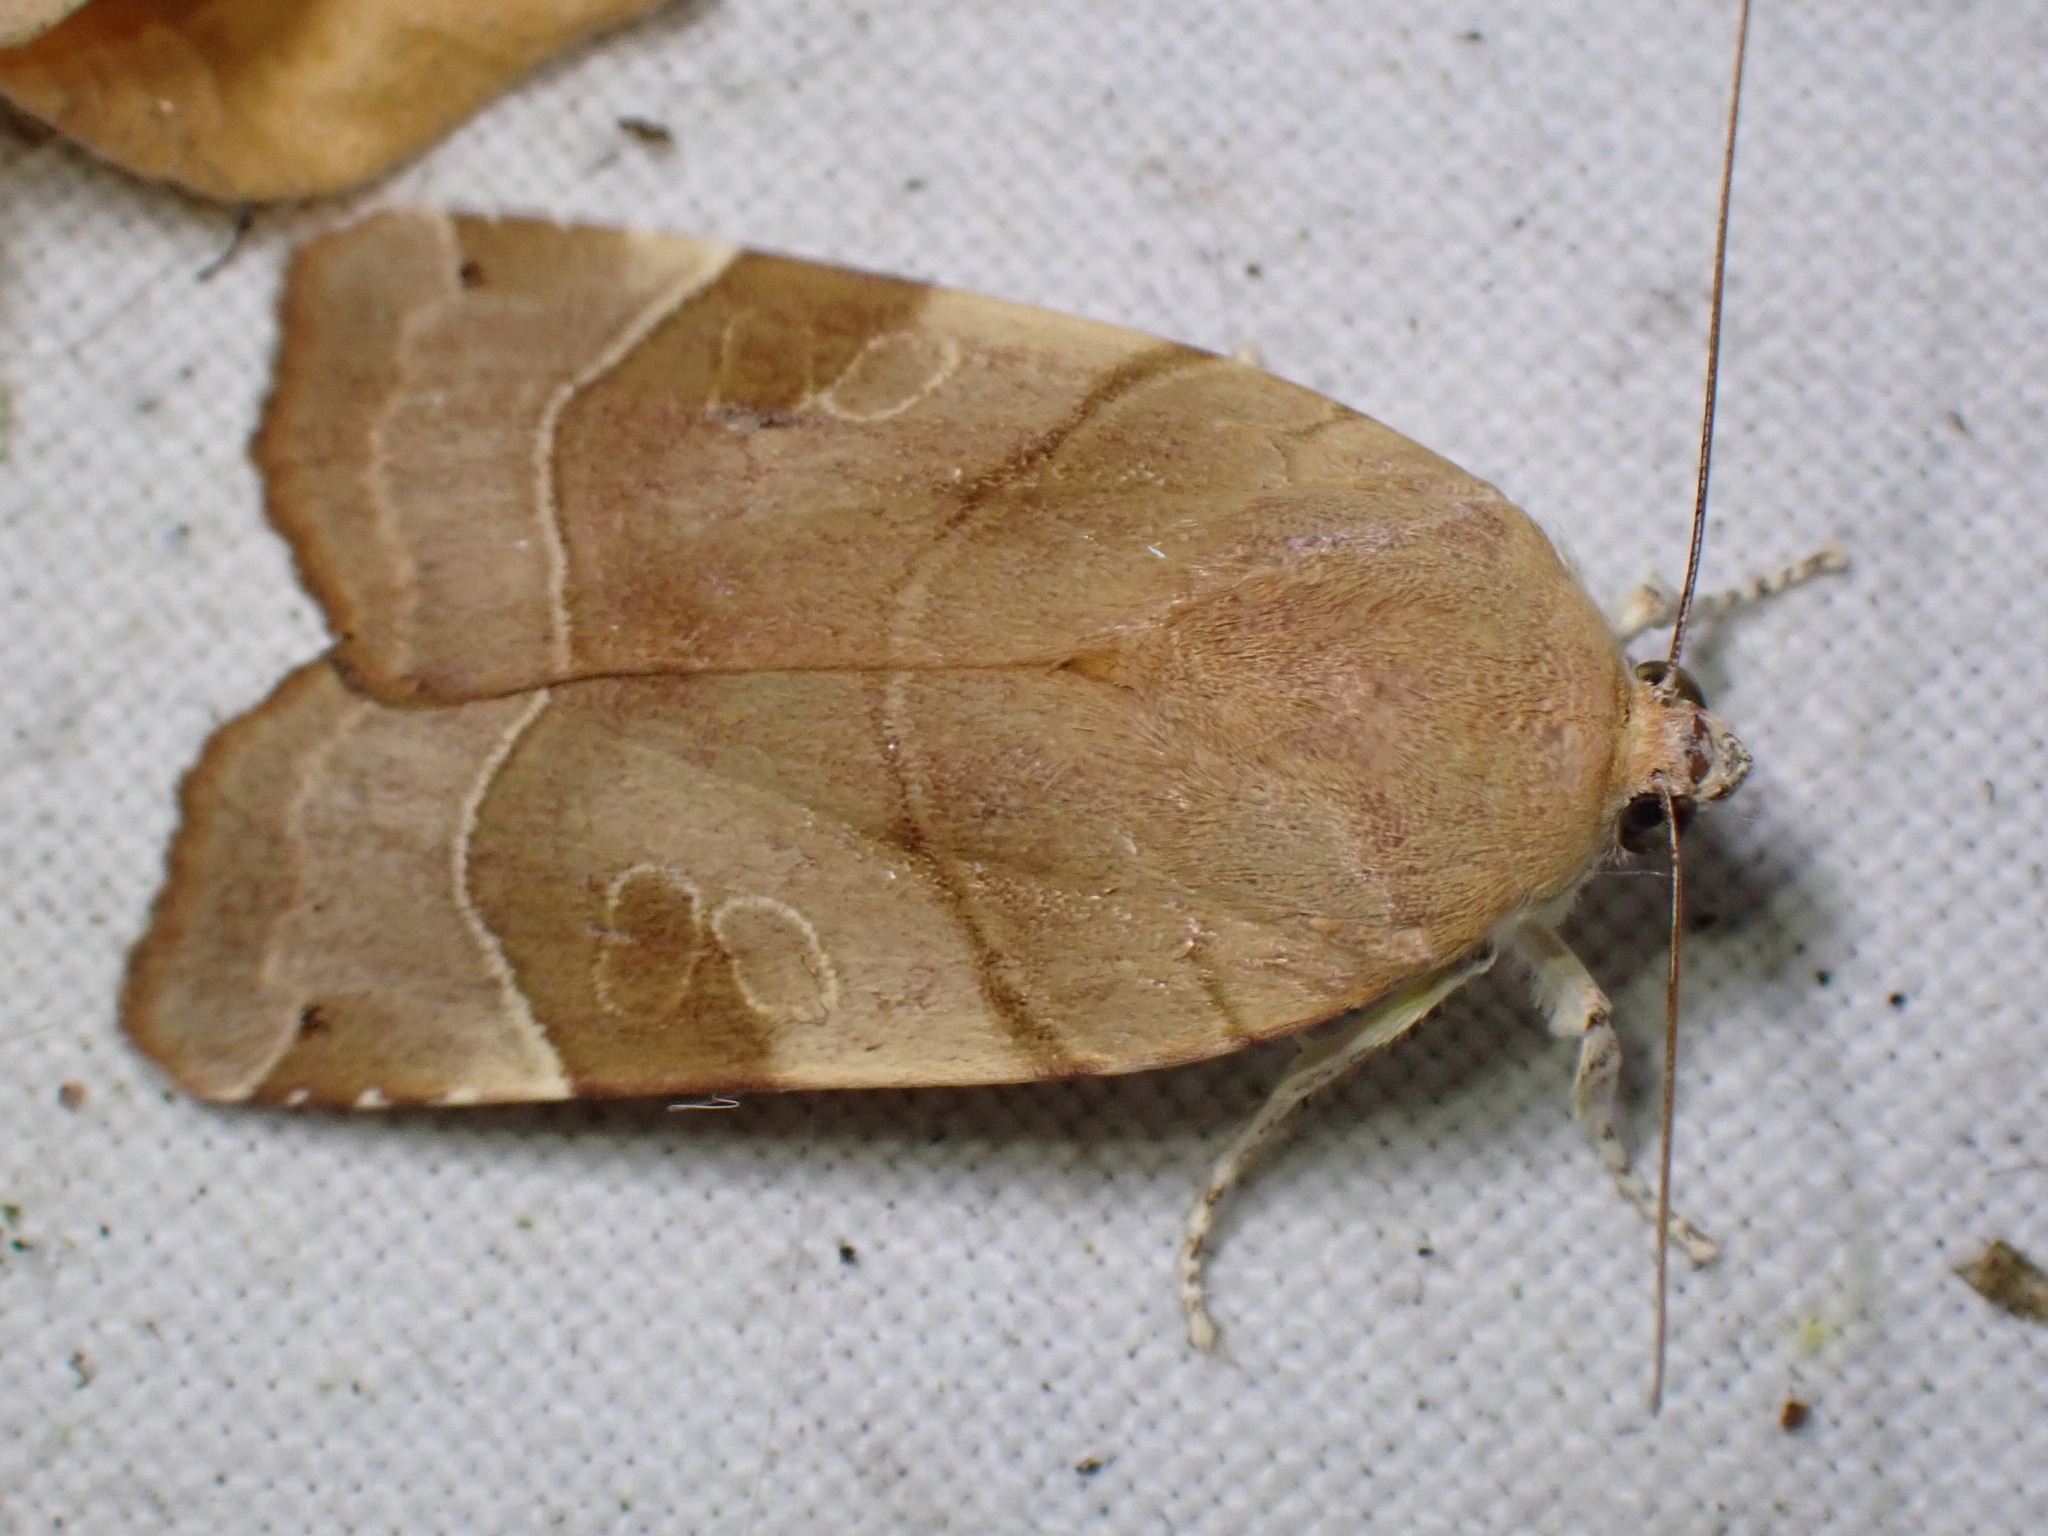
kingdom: Animalia
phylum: Arthropoda
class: Insecta
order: Lepidoptera
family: Noctuidae
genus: Noctua
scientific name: Noctua fimbriata
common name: Broad-bordered yellow underwing
